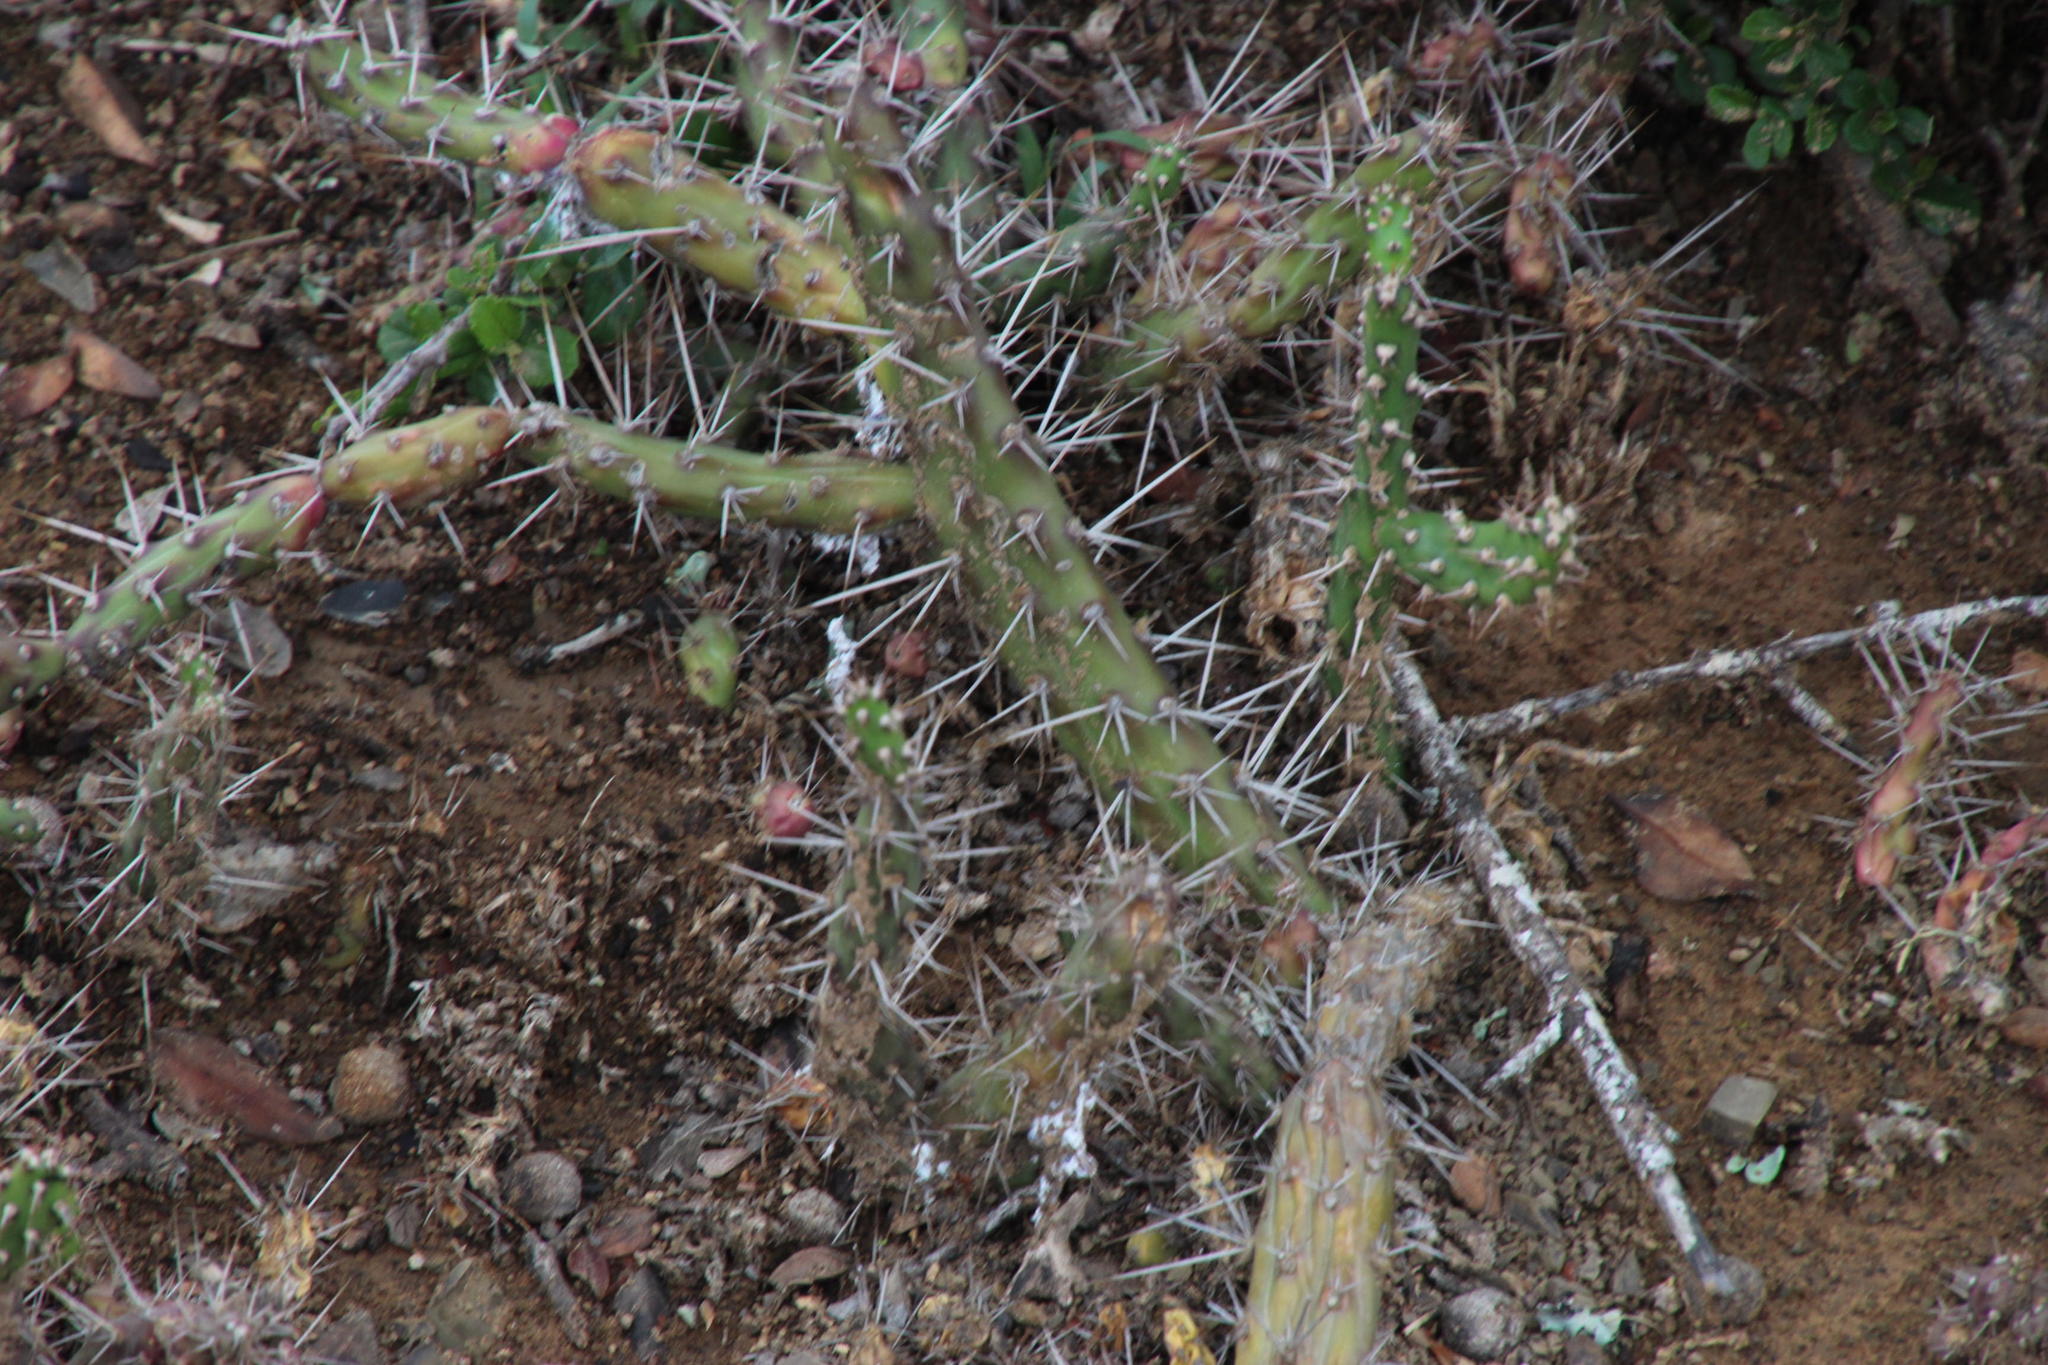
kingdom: Plantae
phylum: Tracheophyta
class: Magnoliopsida
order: Caryophyllales
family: Cactaceae
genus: Opuntia
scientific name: Opuntia aurantiaca
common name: Jointed pricklypear
